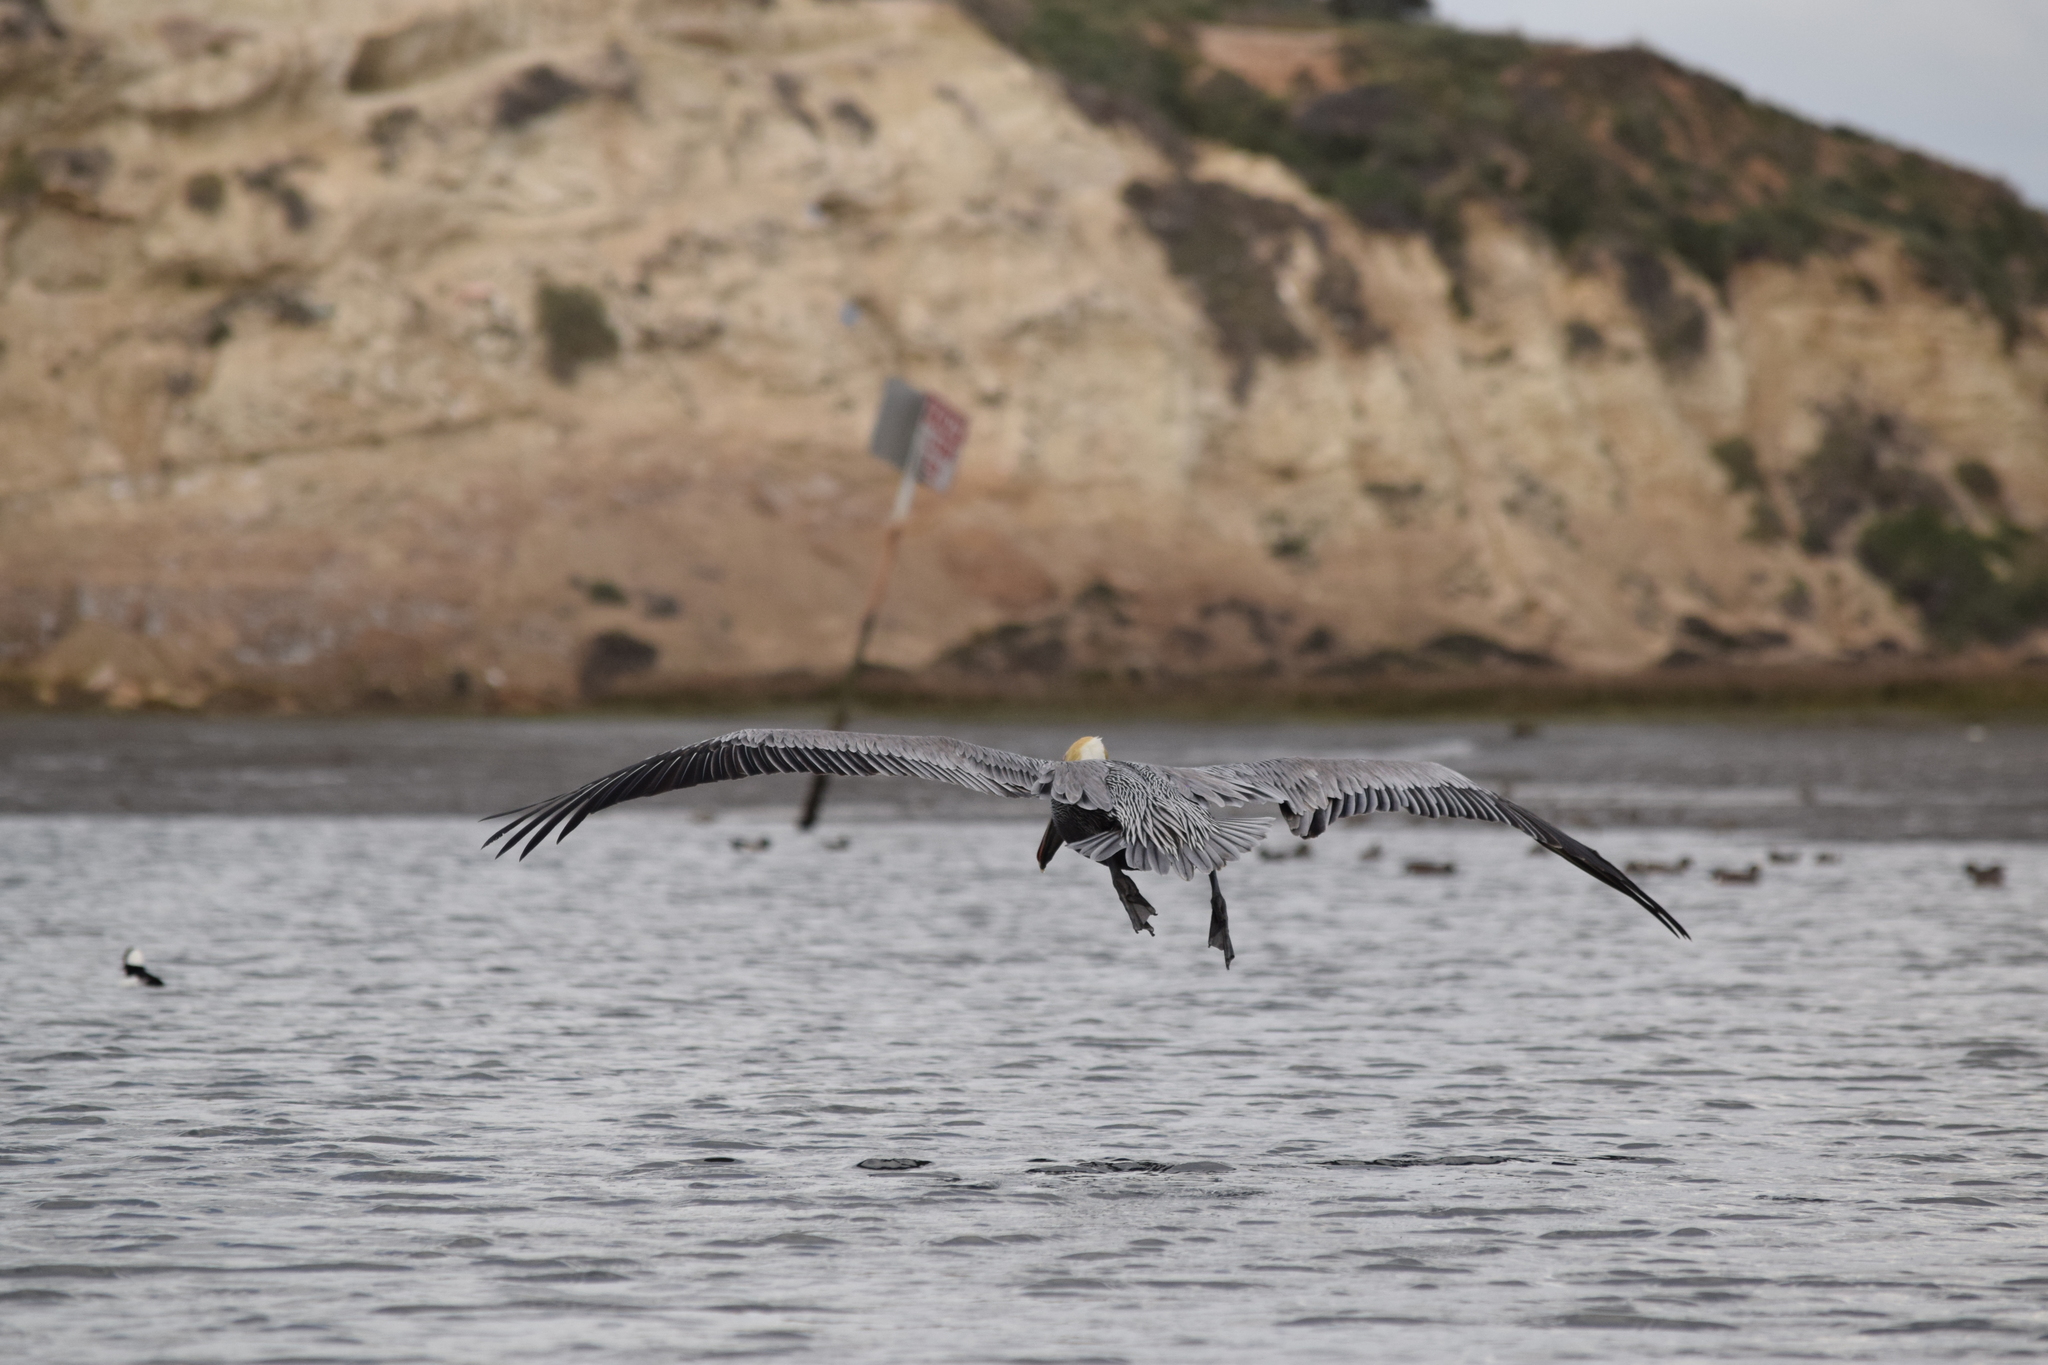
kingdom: Animalia
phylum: Chordata
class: Aves
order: Pelecaniformes
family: Pelecanidae
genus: Pelecanus
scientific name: Pelecanus occidentalis
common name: Brown pelican
